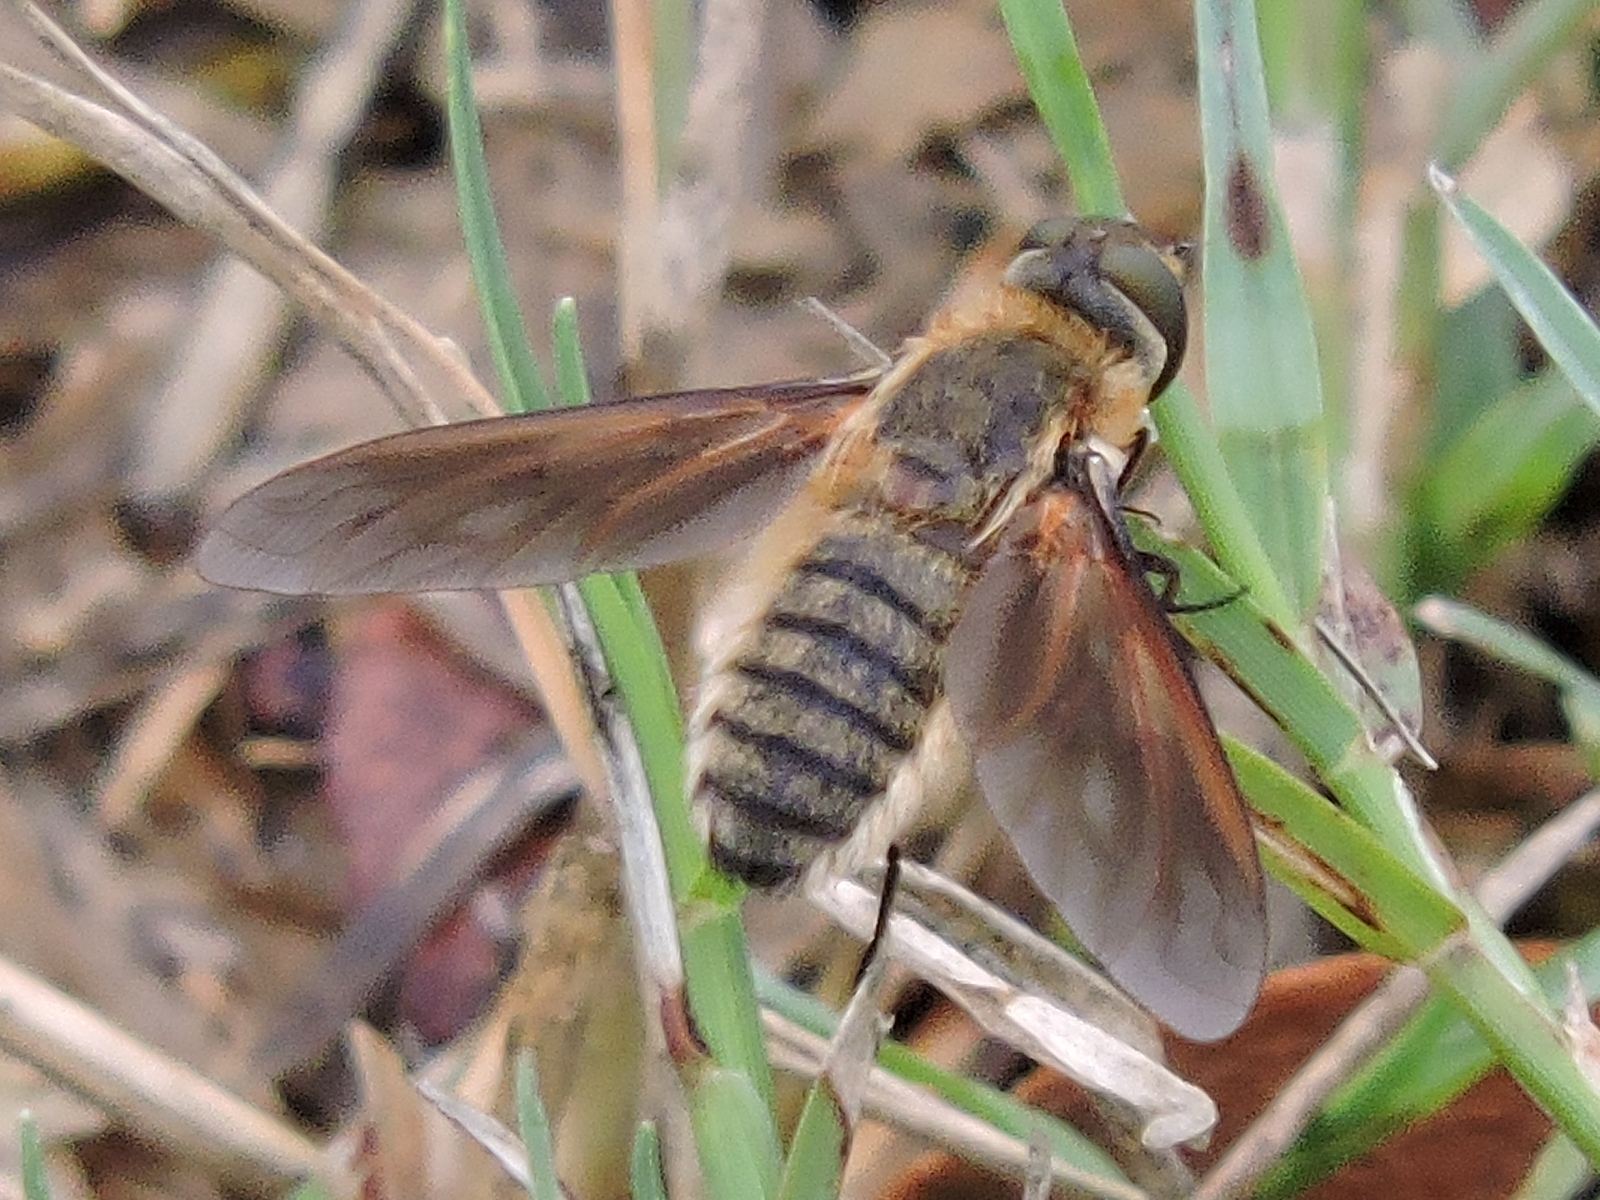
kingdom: Animalia
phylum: Arthropoda
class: Insecta
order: Diptera
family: Bombyliidae
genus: Poecilanthrax
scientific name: Poecilanthrax lucifer
